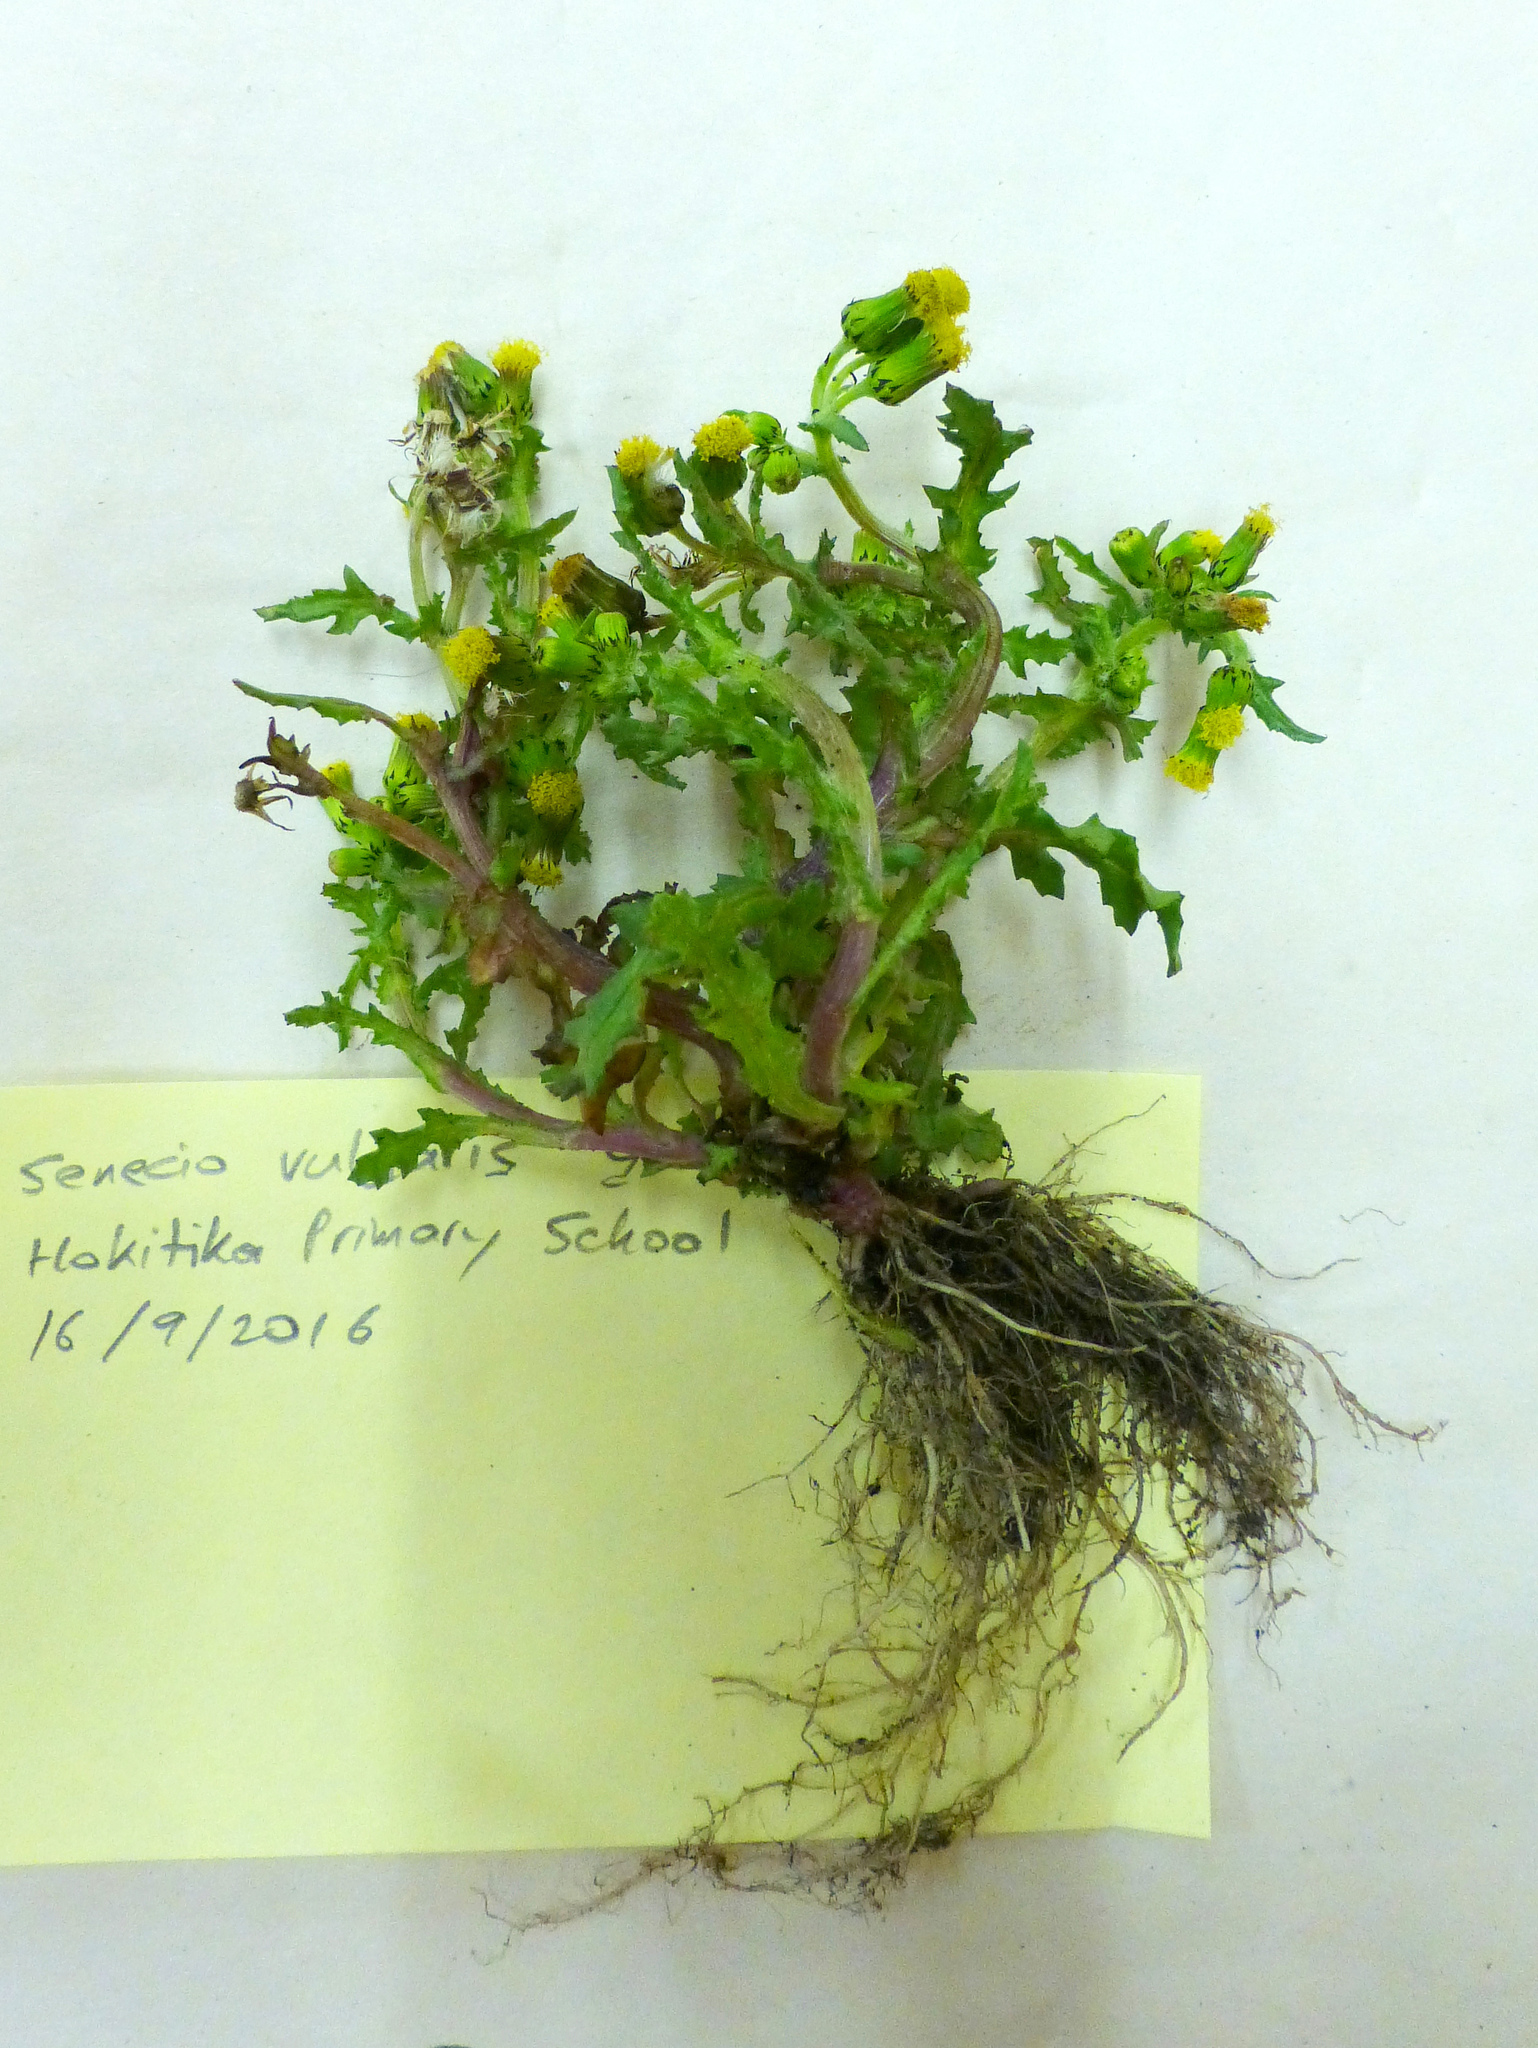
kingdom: Plantae
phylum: Tracheophyta
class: Magnoliopsida
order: Asterales
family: Asteraceae
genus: Senecio
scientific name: Senecio vulgaris
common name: Old-man-in-the-spring
